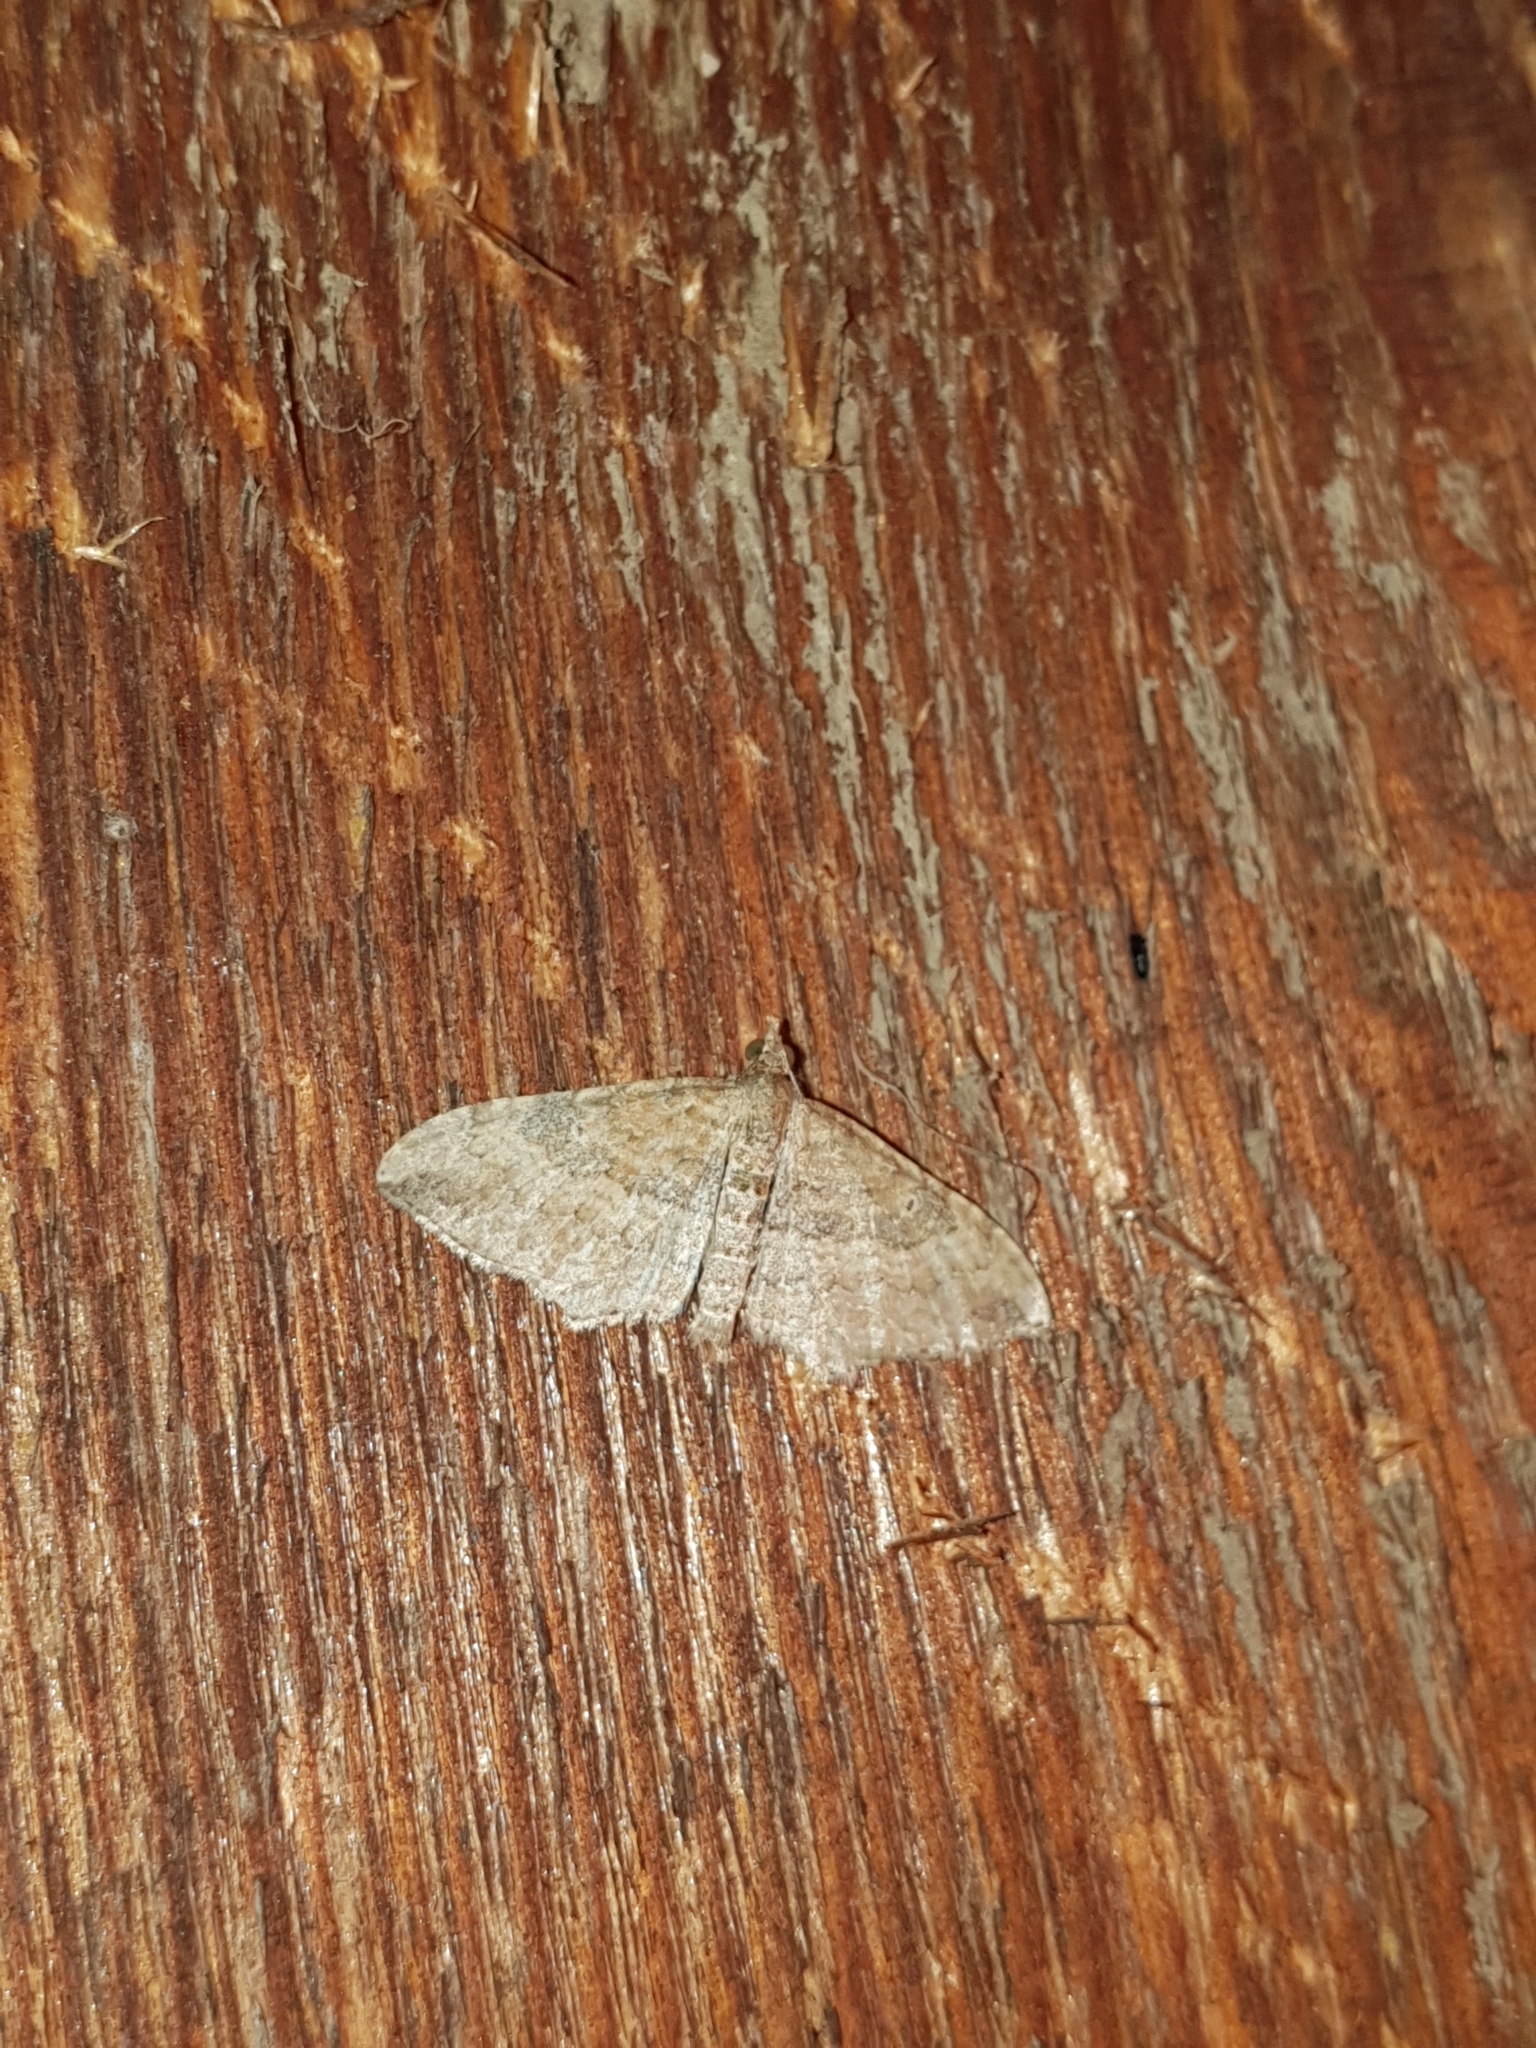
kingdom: Animalia
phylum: Arthropoda
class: Insecta
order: Lepidoptera
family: Geometridae
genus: Orthonama
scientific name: Orthonama obstipata
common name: The gem
